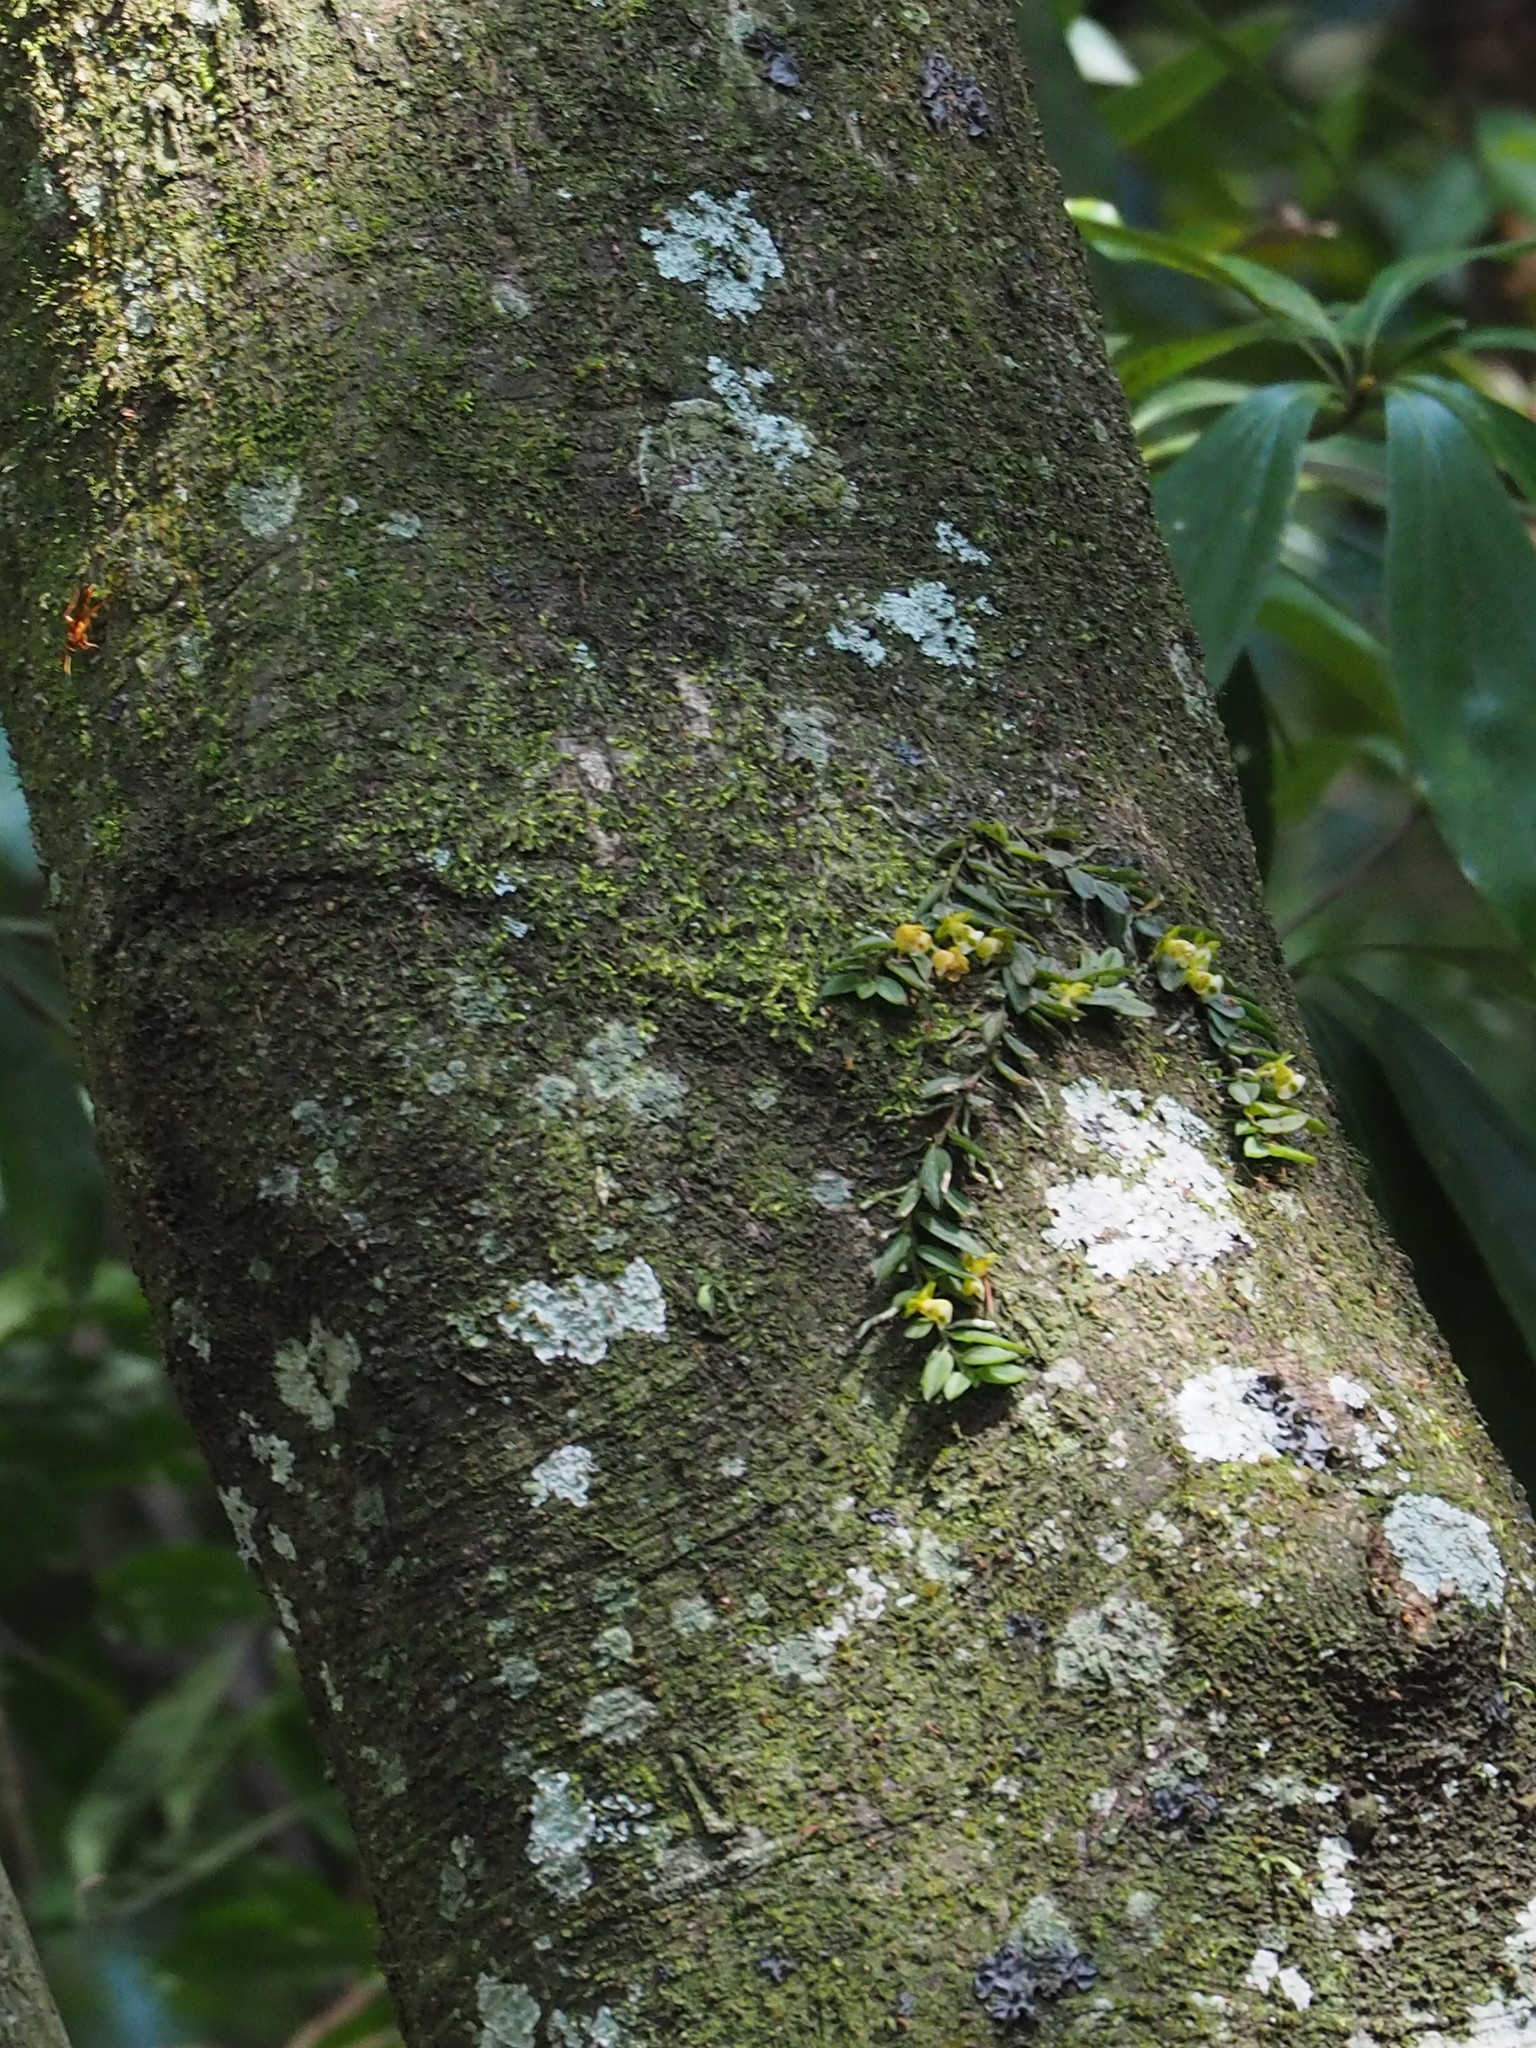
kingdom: Plantae
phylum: Tracheophyta
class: Liliopsida
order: Asparagales
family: Orchidaceae
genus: Gastrochilus
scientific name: Gastrochilus formosanus
